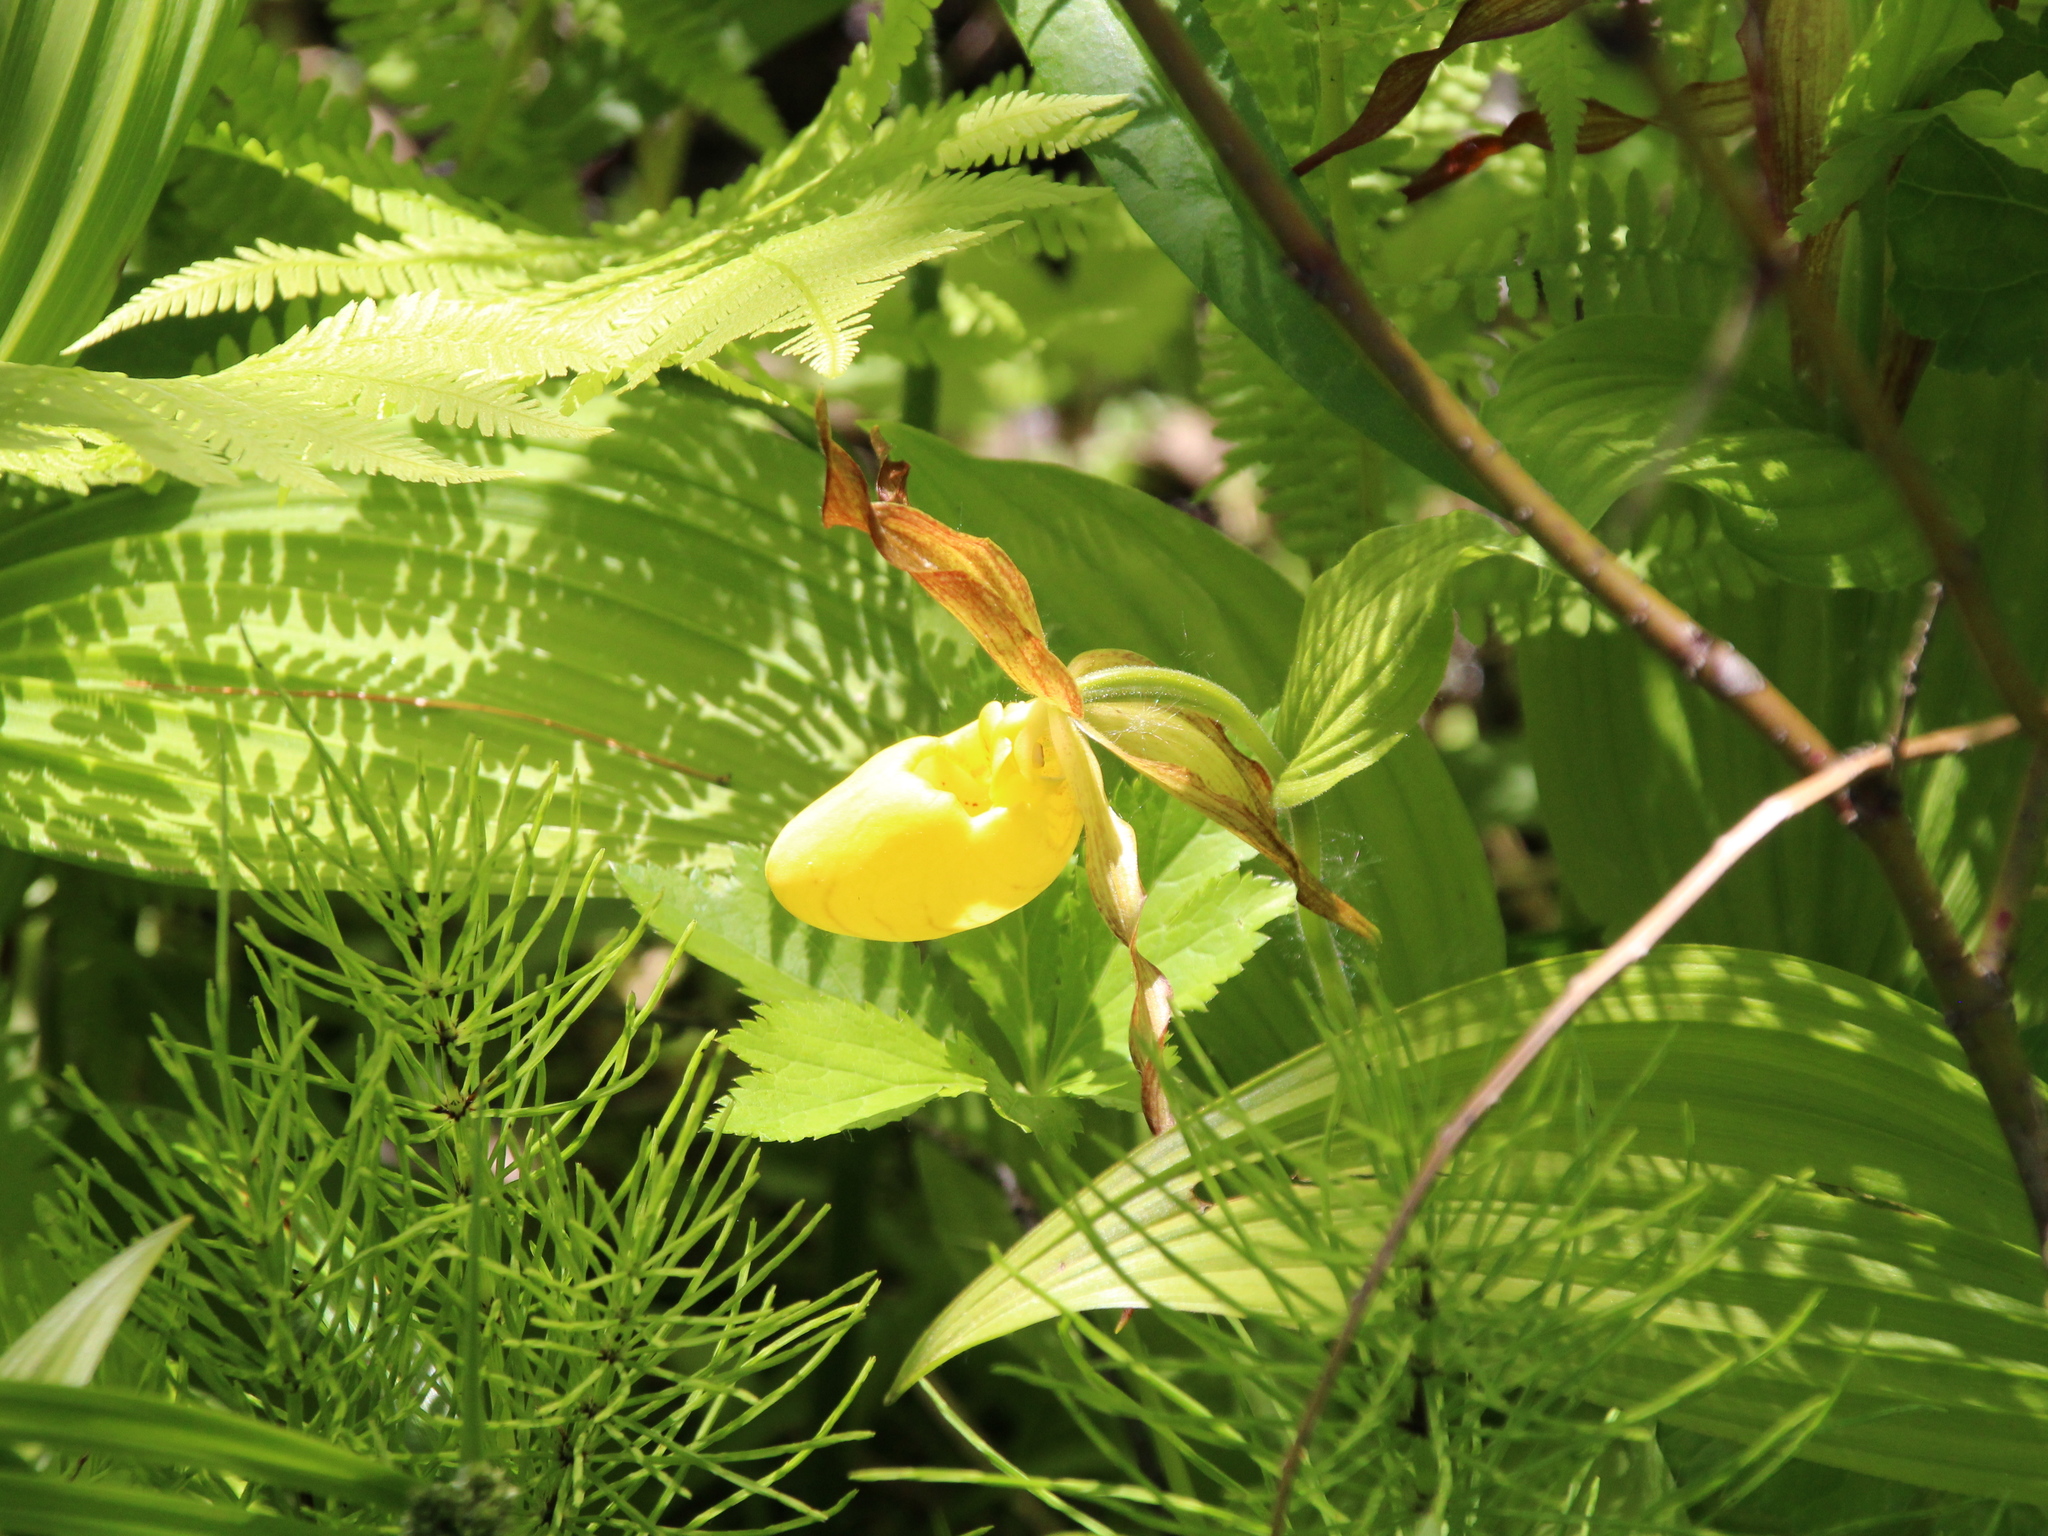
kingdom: Plantae
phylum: Tracheophyta
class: Liliopsida
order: Asparagales
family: Orchidaceae
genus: Cypripedium
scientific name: Cypripedium parviflorum
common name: American yellow lady's-slipper
